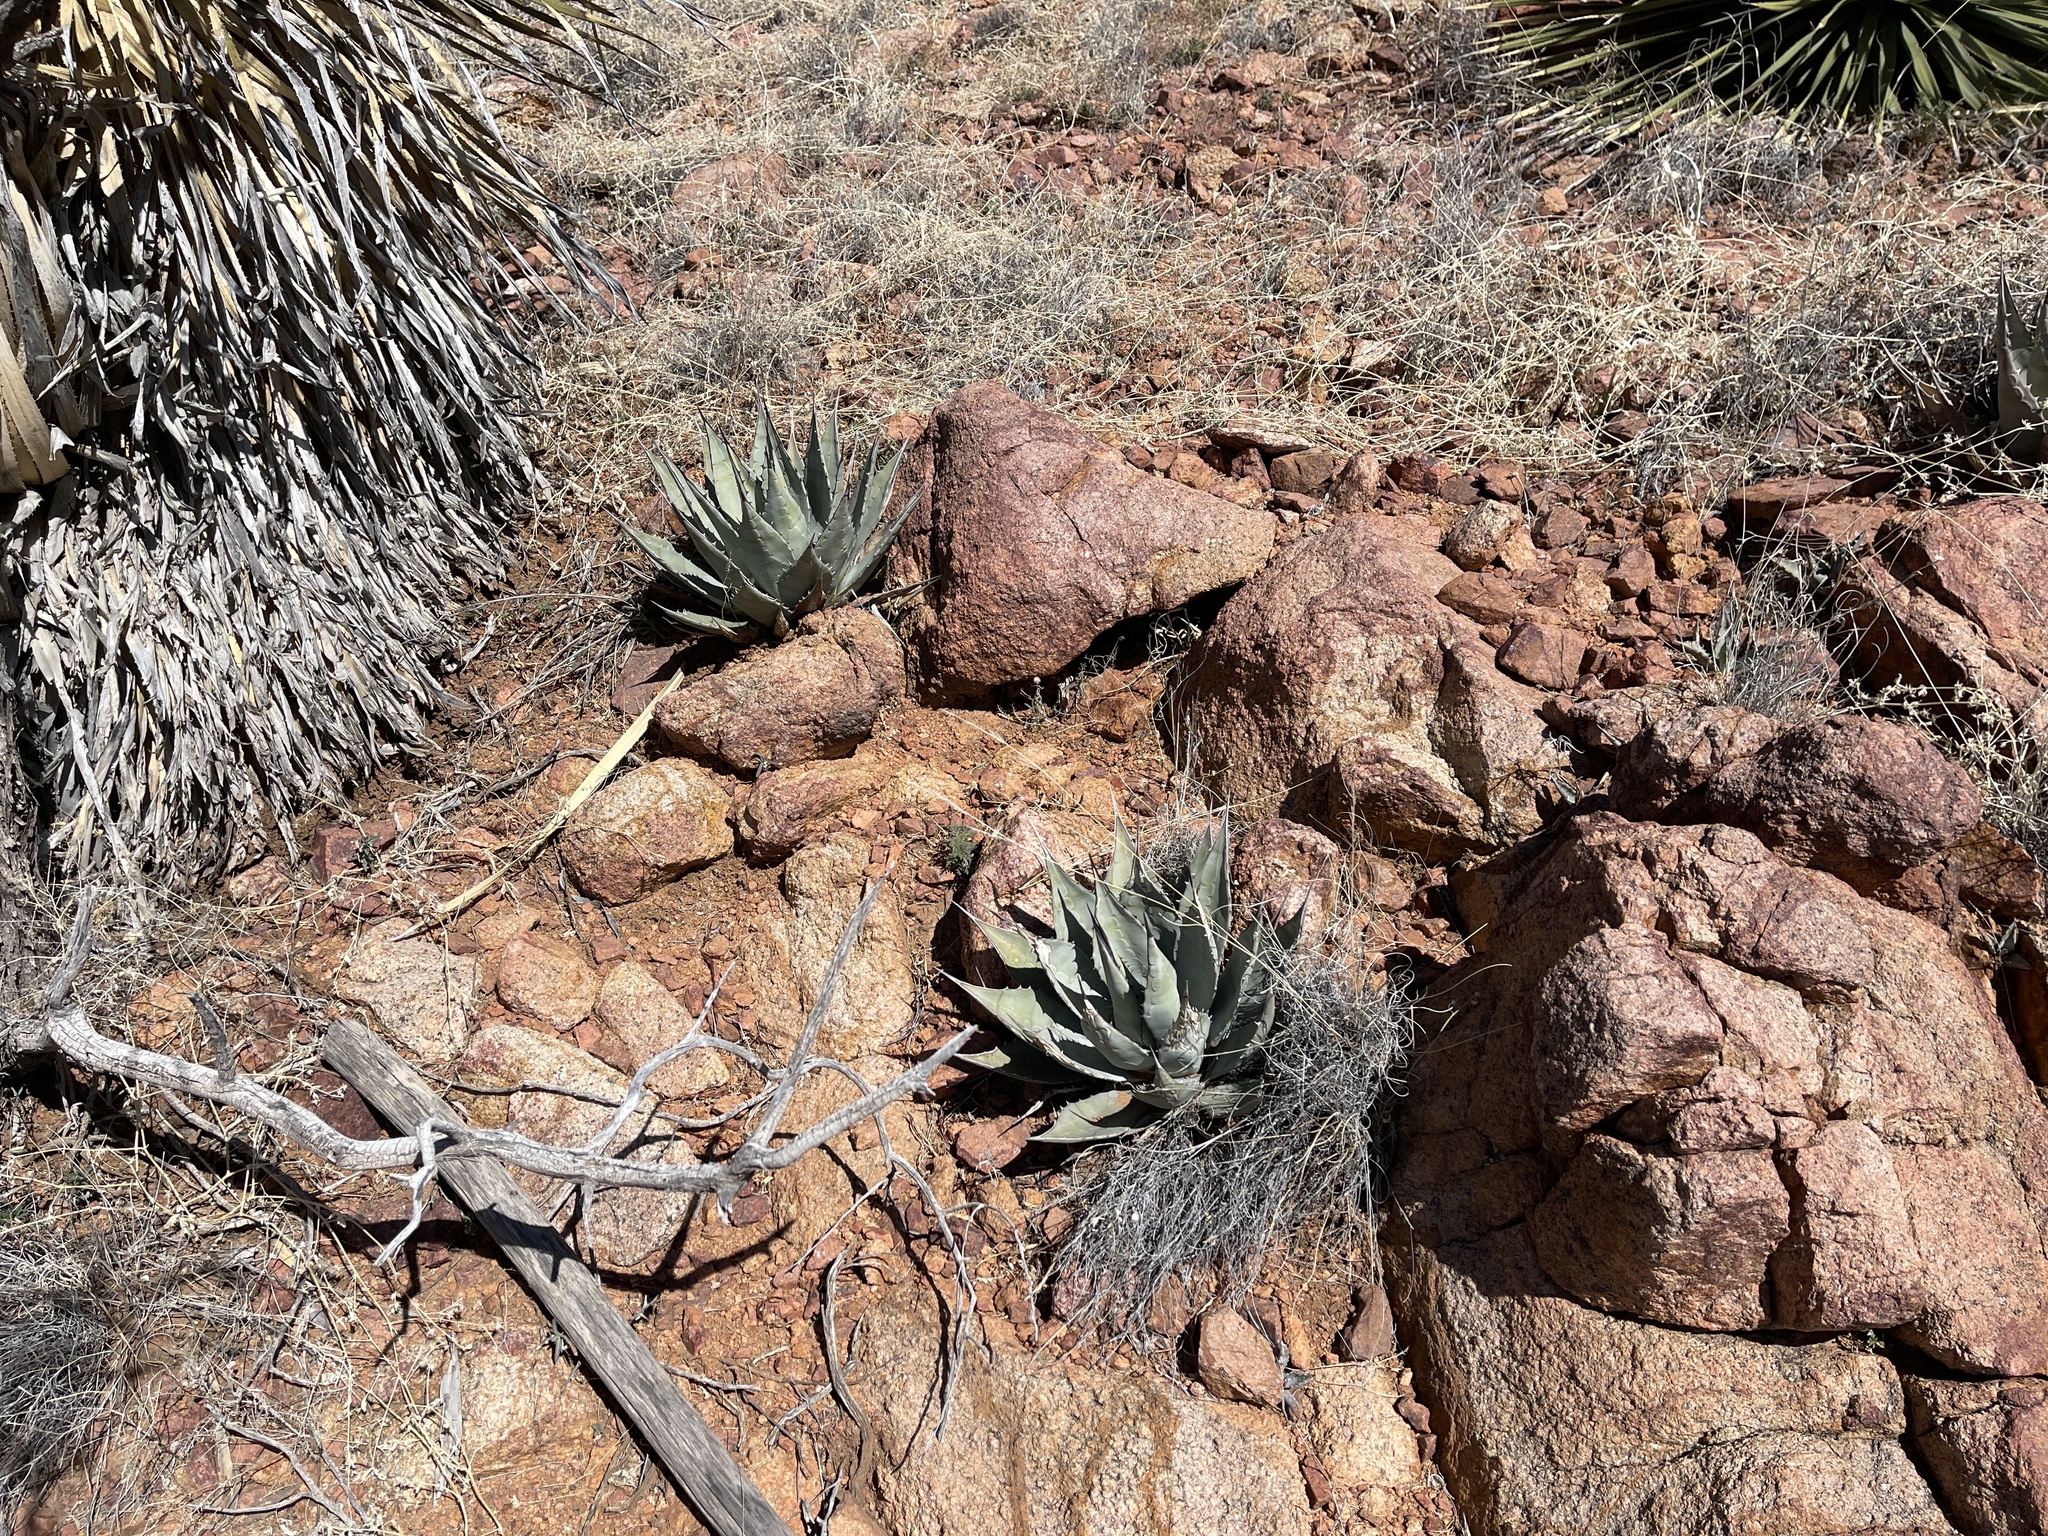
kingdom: Plantae
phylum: Tracheophyta
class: Liliopsida
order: Asparagales
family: Asparagaceae
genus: Agave
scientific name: Agave parryi
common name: Parry's agave
